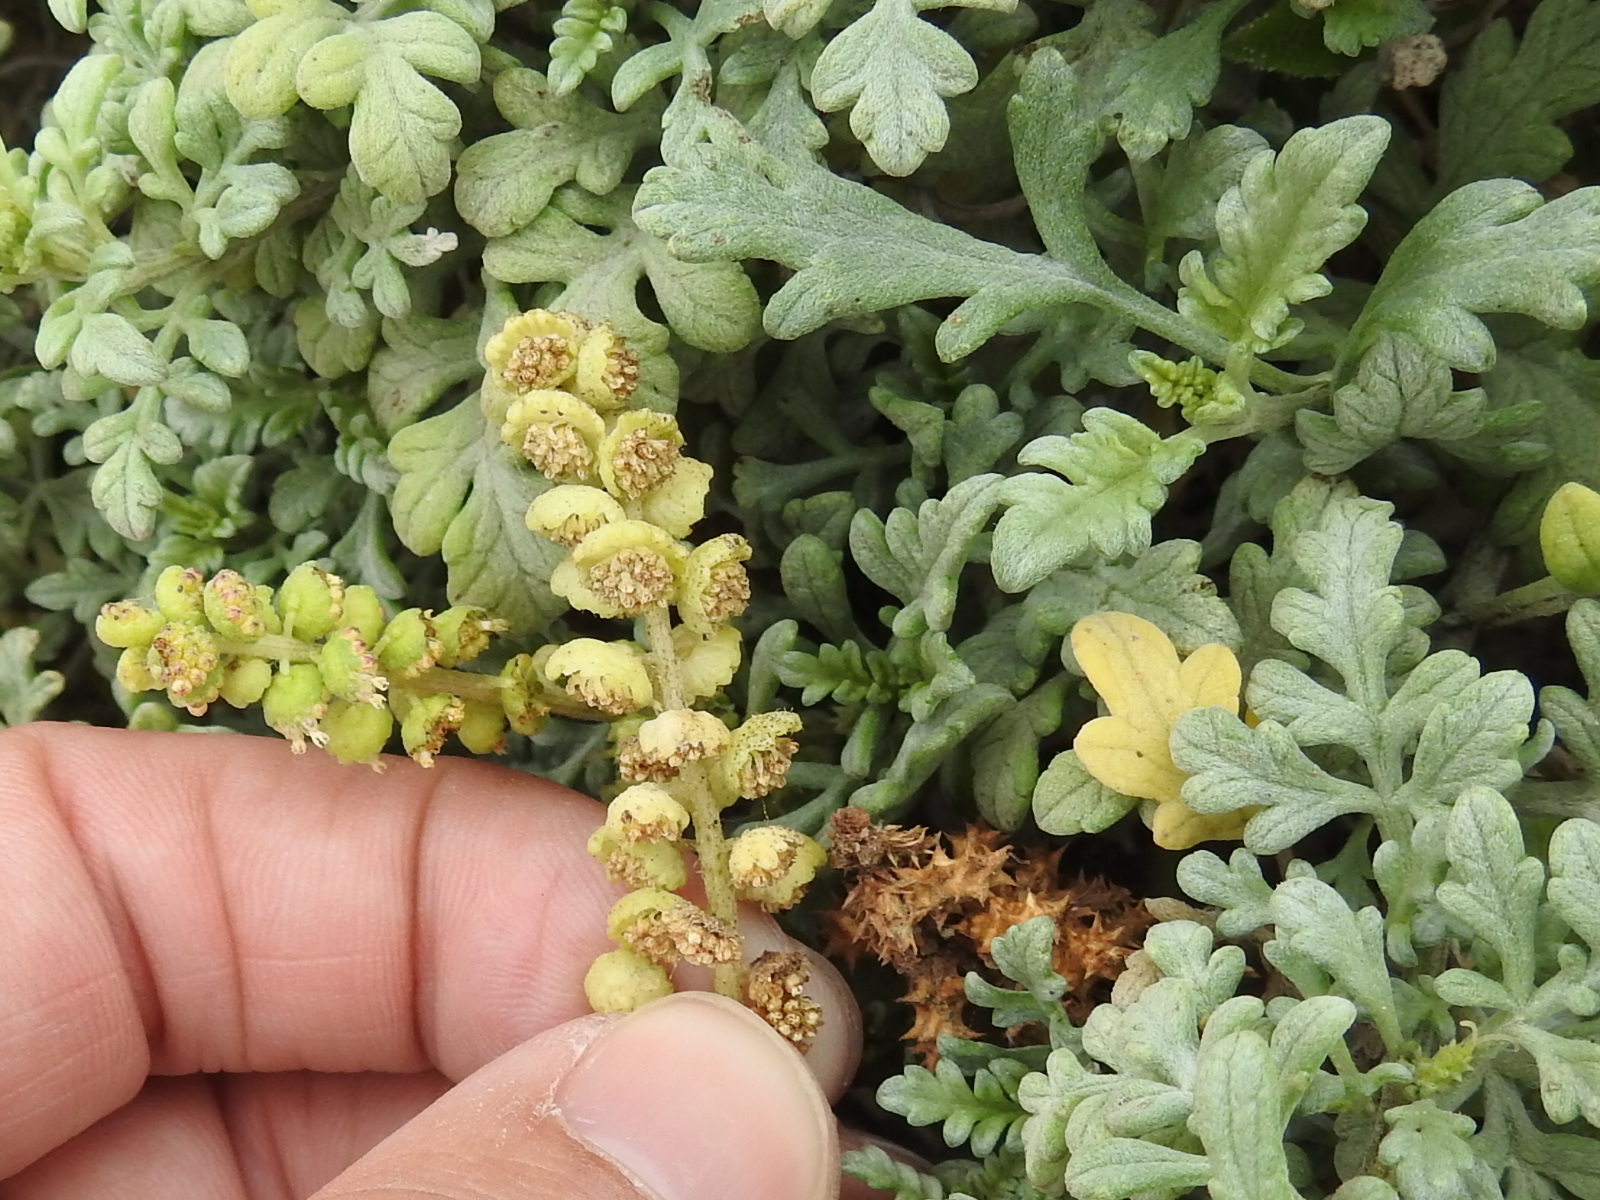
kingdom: Plantae
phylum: Tracheophyta
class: Magnoliopsida
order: Asterales
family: Asteraceae
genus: Ambrosia
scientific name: Ambrosia chamissonis
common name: Beachbur
